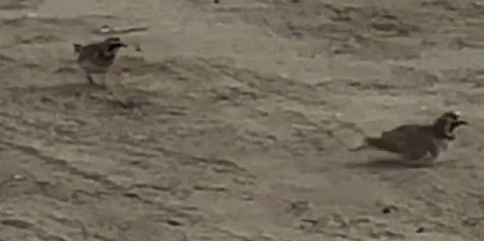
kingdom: Animalia
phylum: Chordata
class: Aves
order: Passeriformes
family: Alaudidae
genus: Eremophila
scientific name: Eremophila alpestris
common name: Horned lark
